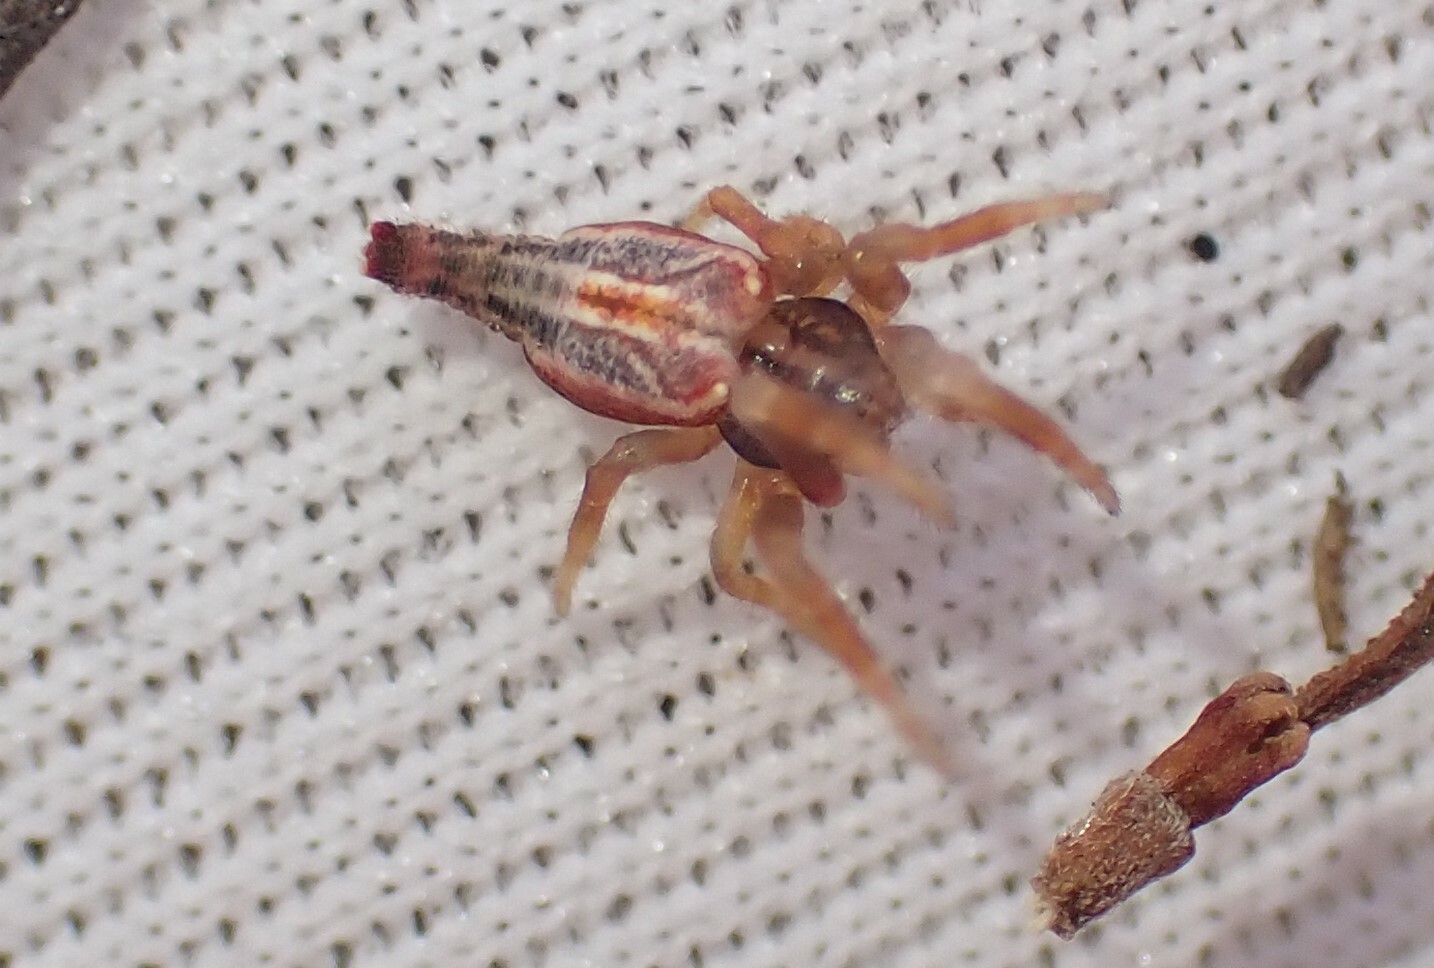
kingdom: Animalia
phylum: Arthropoda
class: Arachnida
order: Araneae
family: Araneidae
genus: Arachnura
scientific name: Arachnura higginsi
